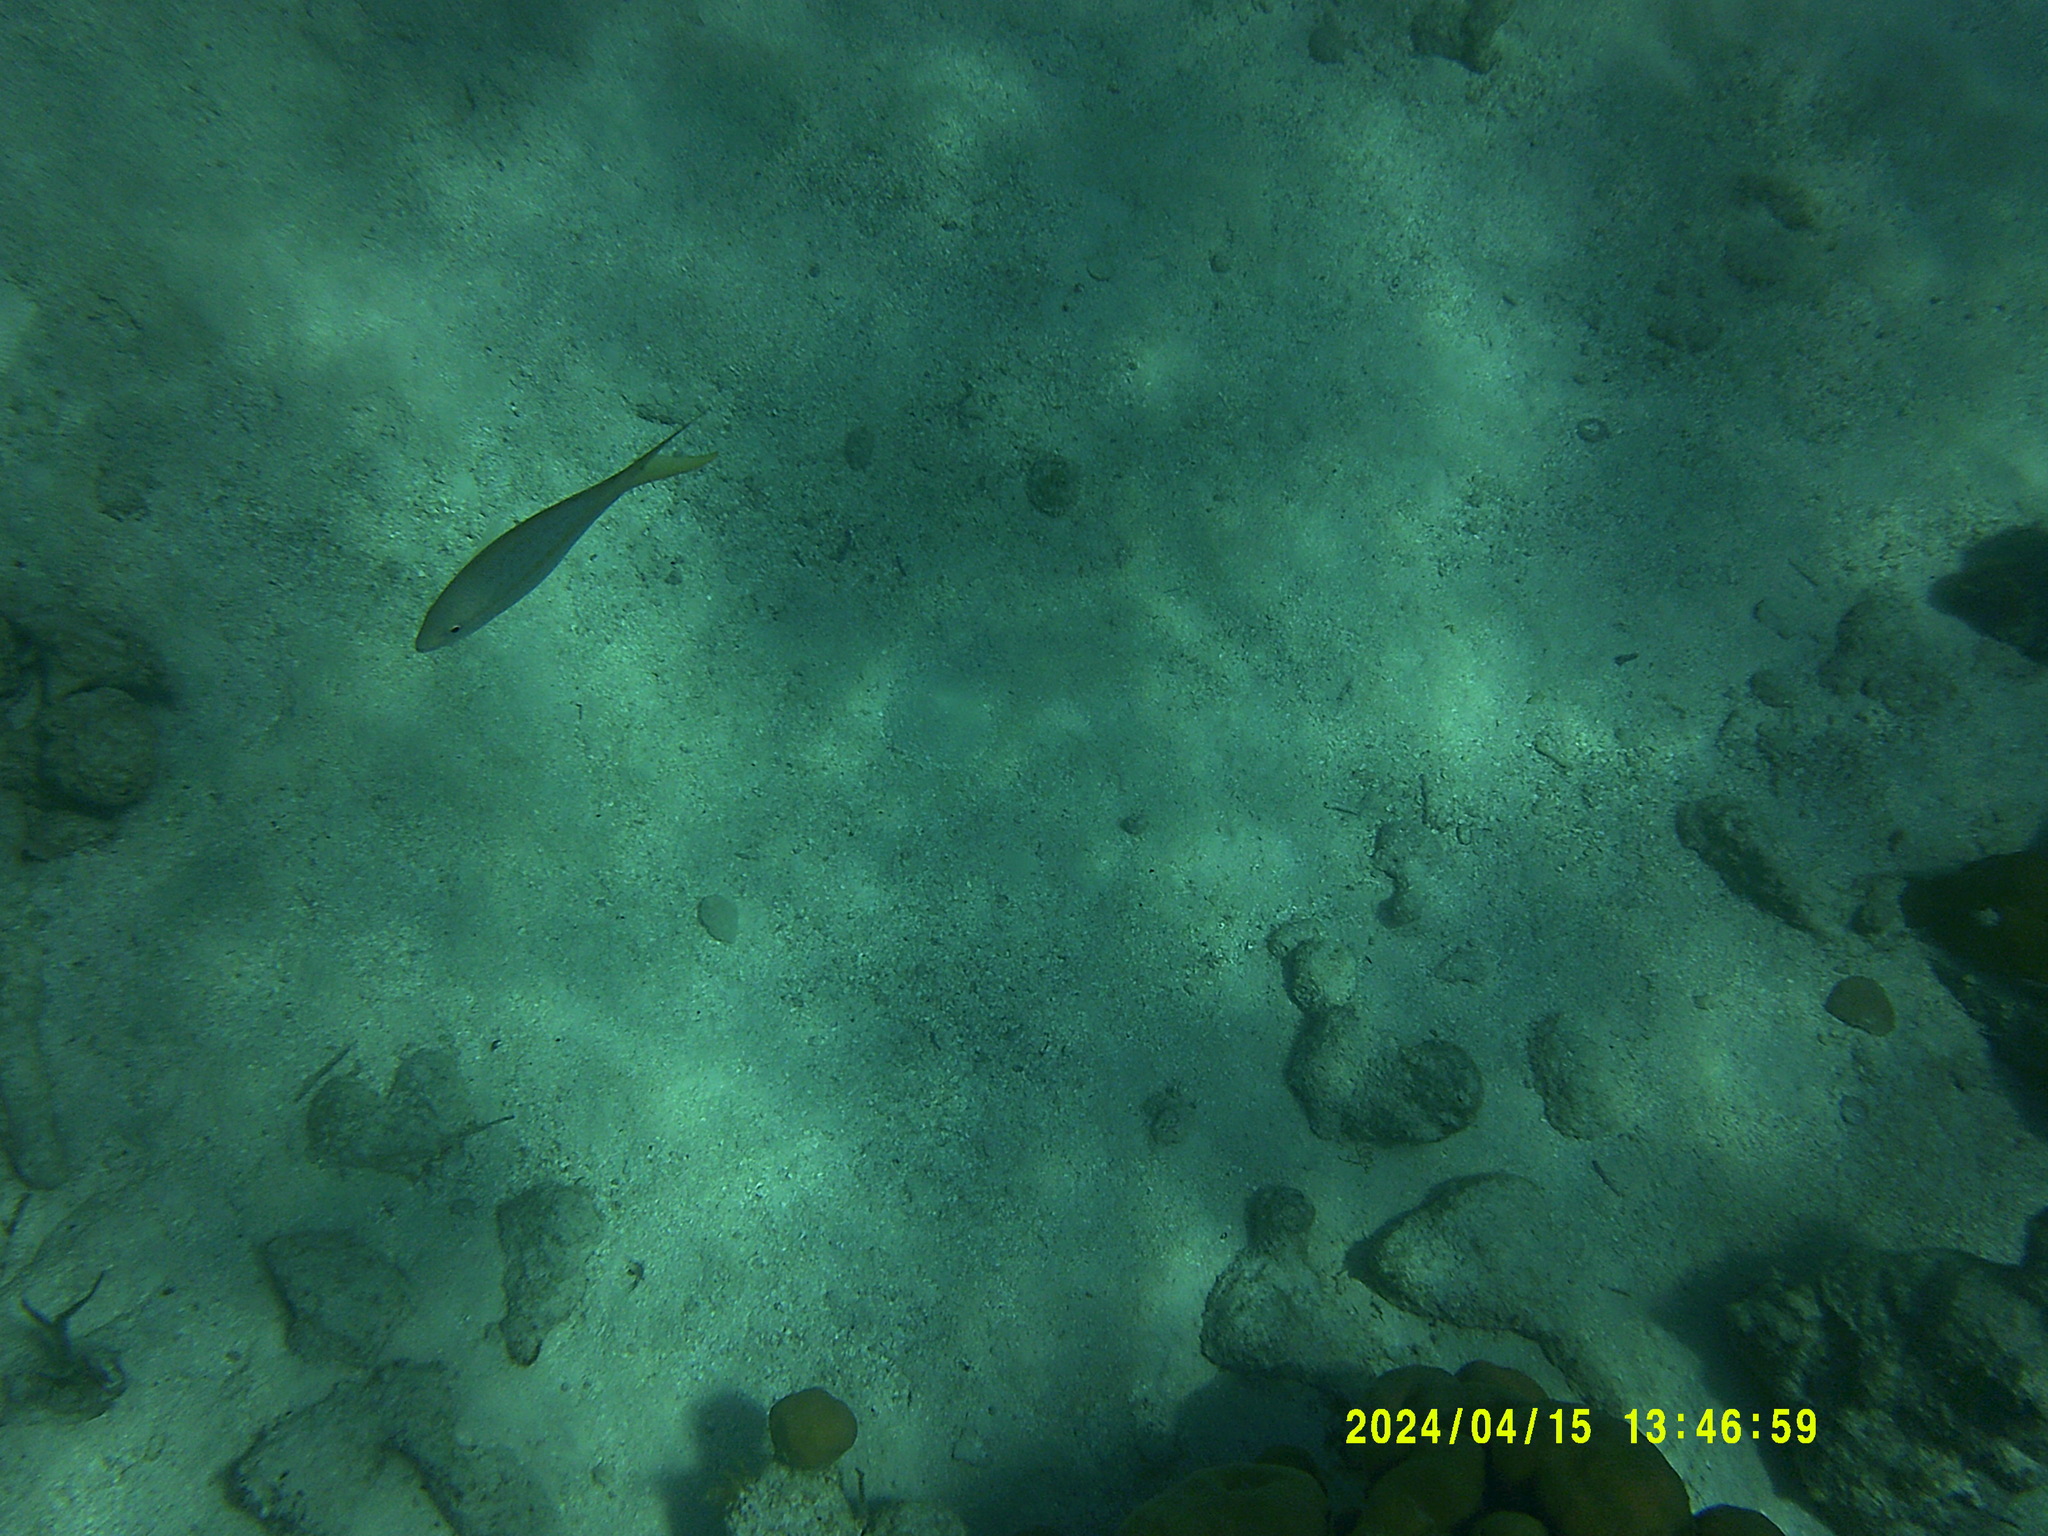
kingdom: Animalia
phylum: Chordata
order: Perciformes
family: Lutjanidae
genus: Ocyurus
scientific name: Ocyurus chrysurus
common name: Yellowtail snapper
